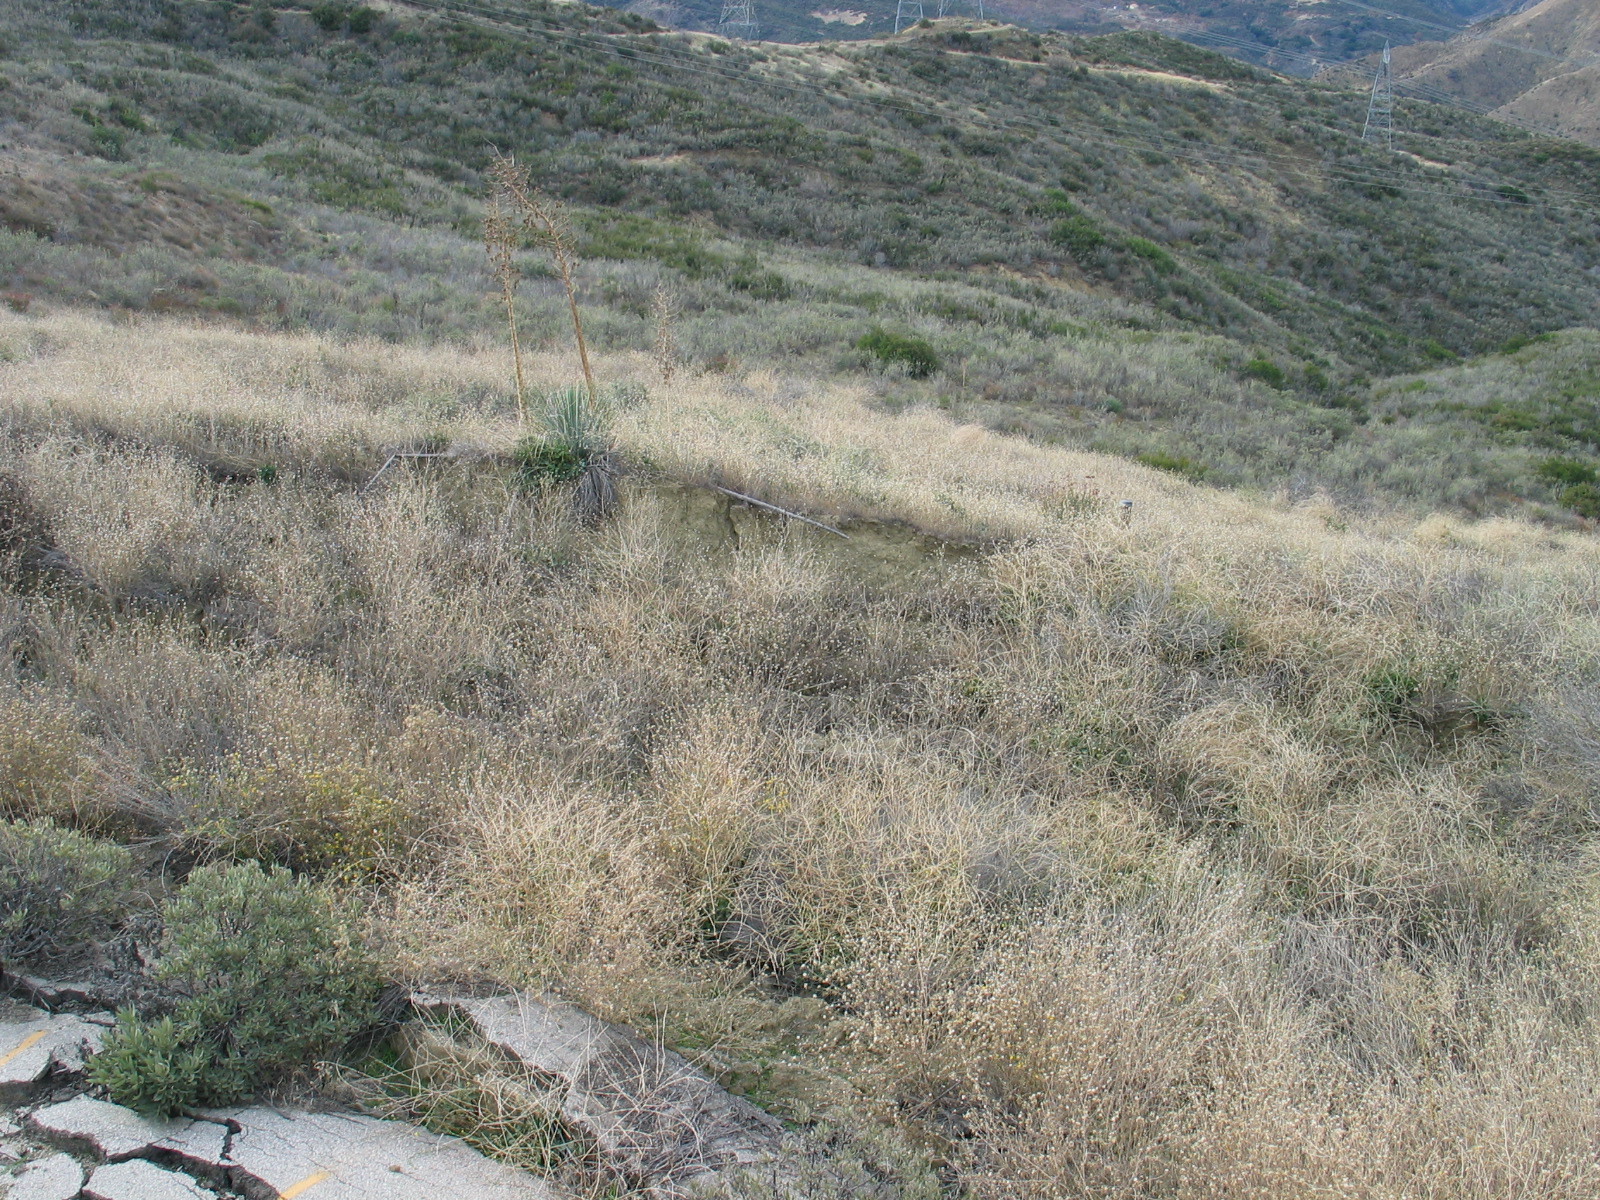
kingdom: Plantae
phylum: Tracheophyta
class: Liliopsida
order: Asparagales
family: Asparagaceae
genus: Hesperoyucca
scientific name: Hesperoyucca whipplei
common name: Our lord's-candle
